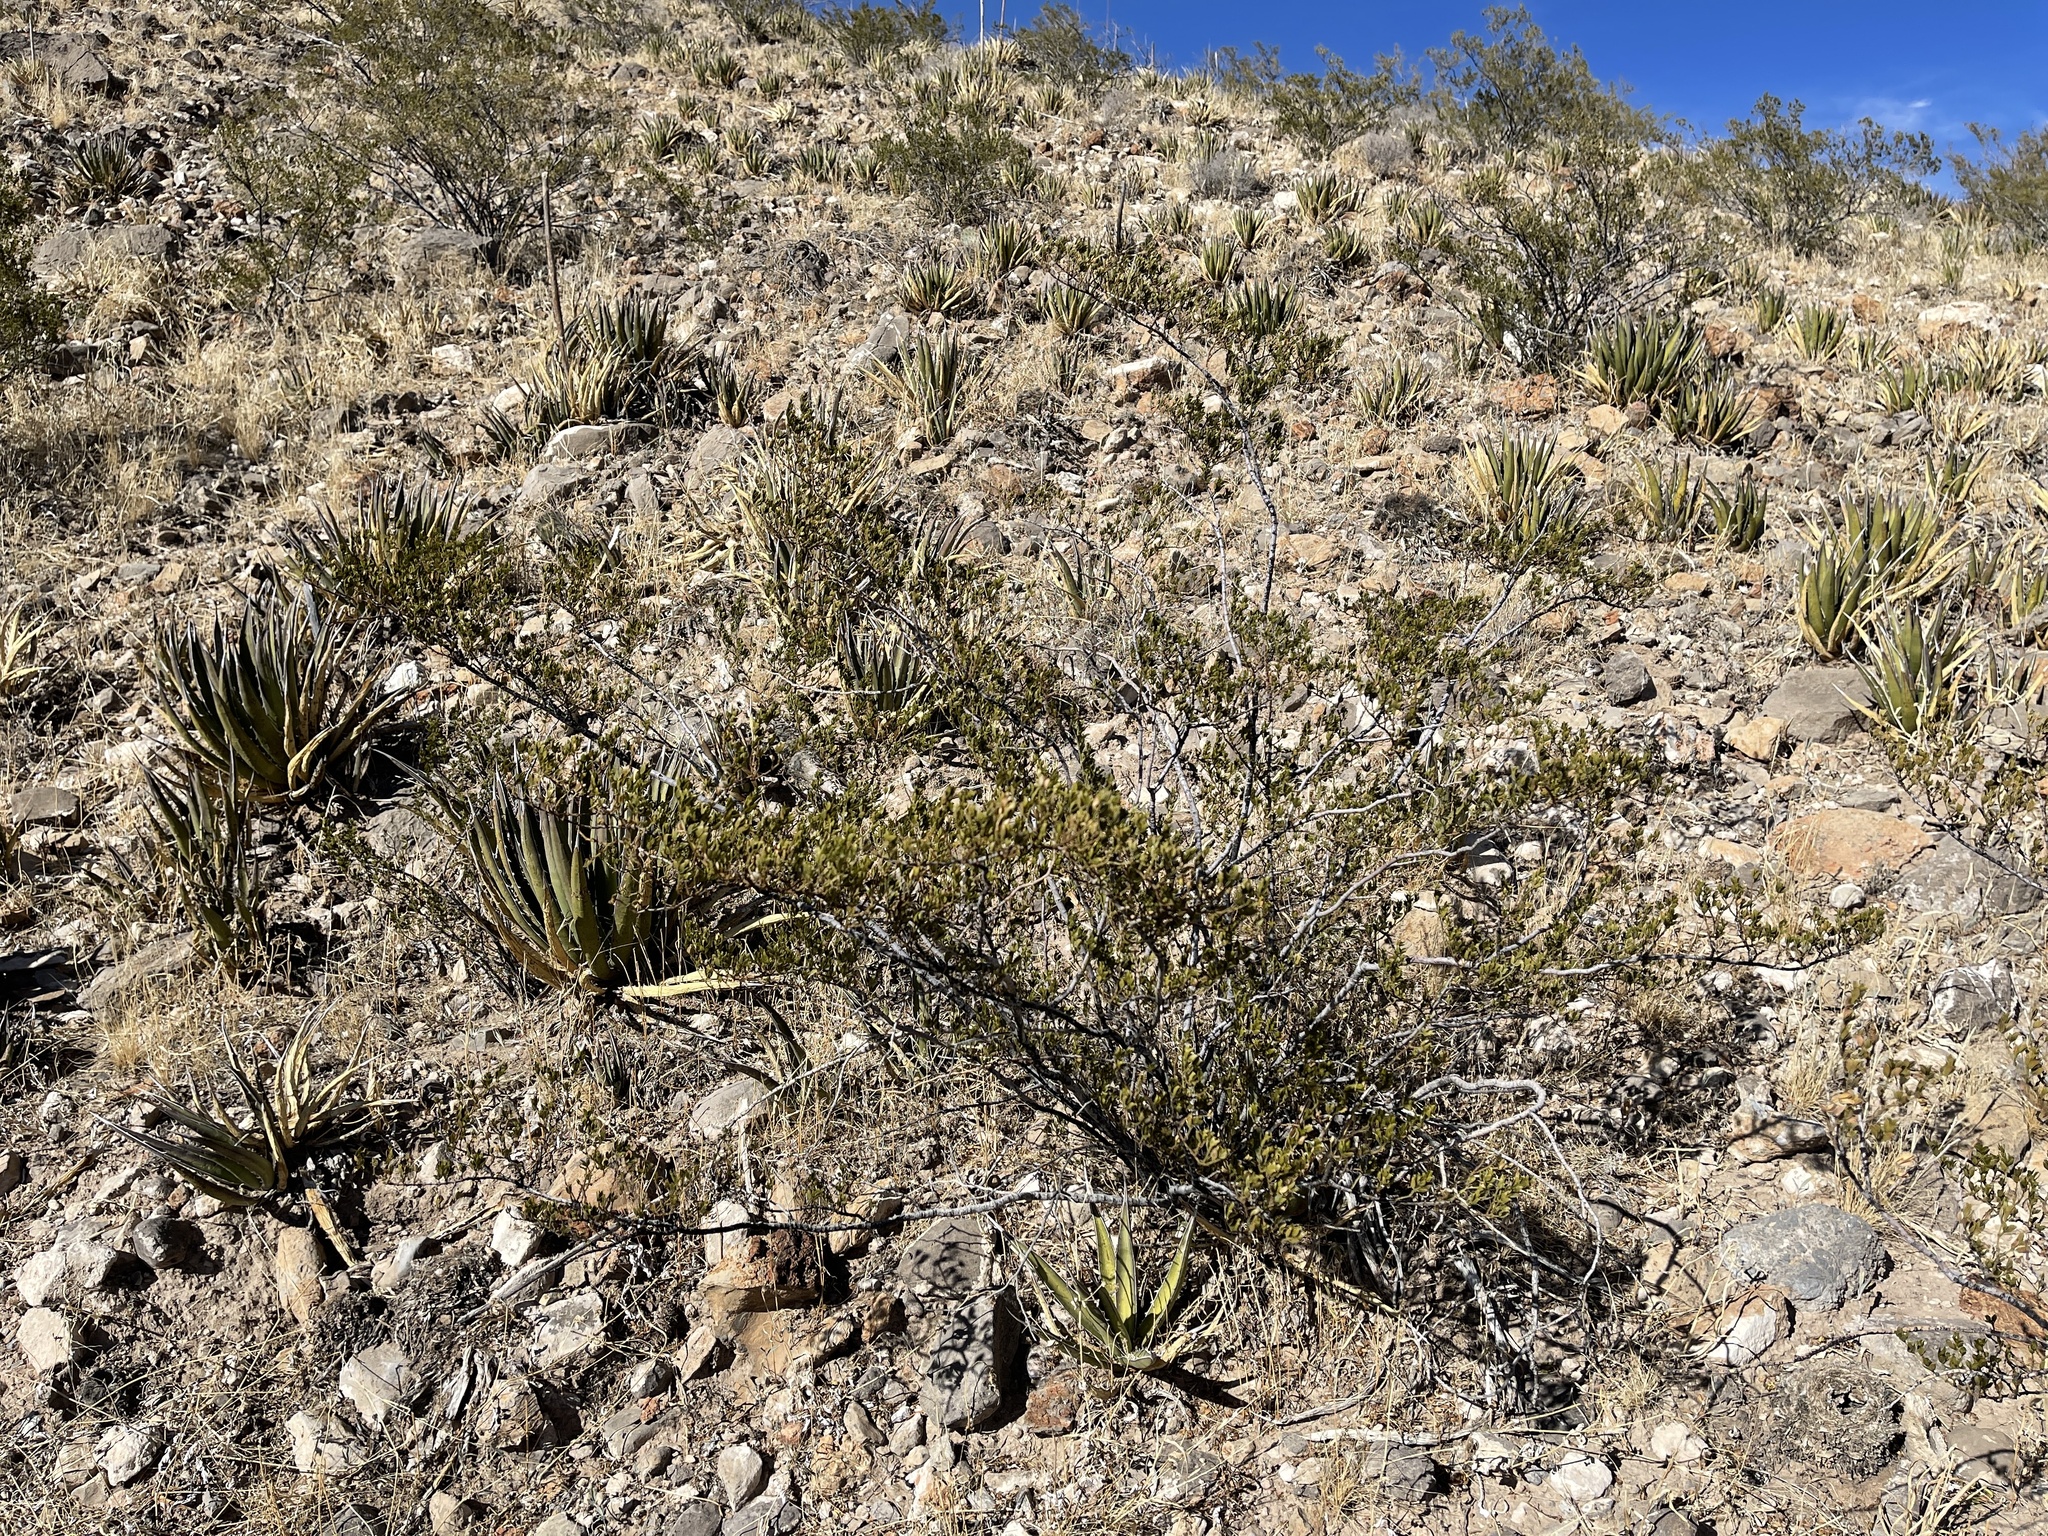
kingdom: Plantae
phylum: Tracheophyta
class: Magnoliopsida
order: Zygophyllales
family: Zygophyllaceae
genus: Larrea
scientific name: Larrea tridentata
